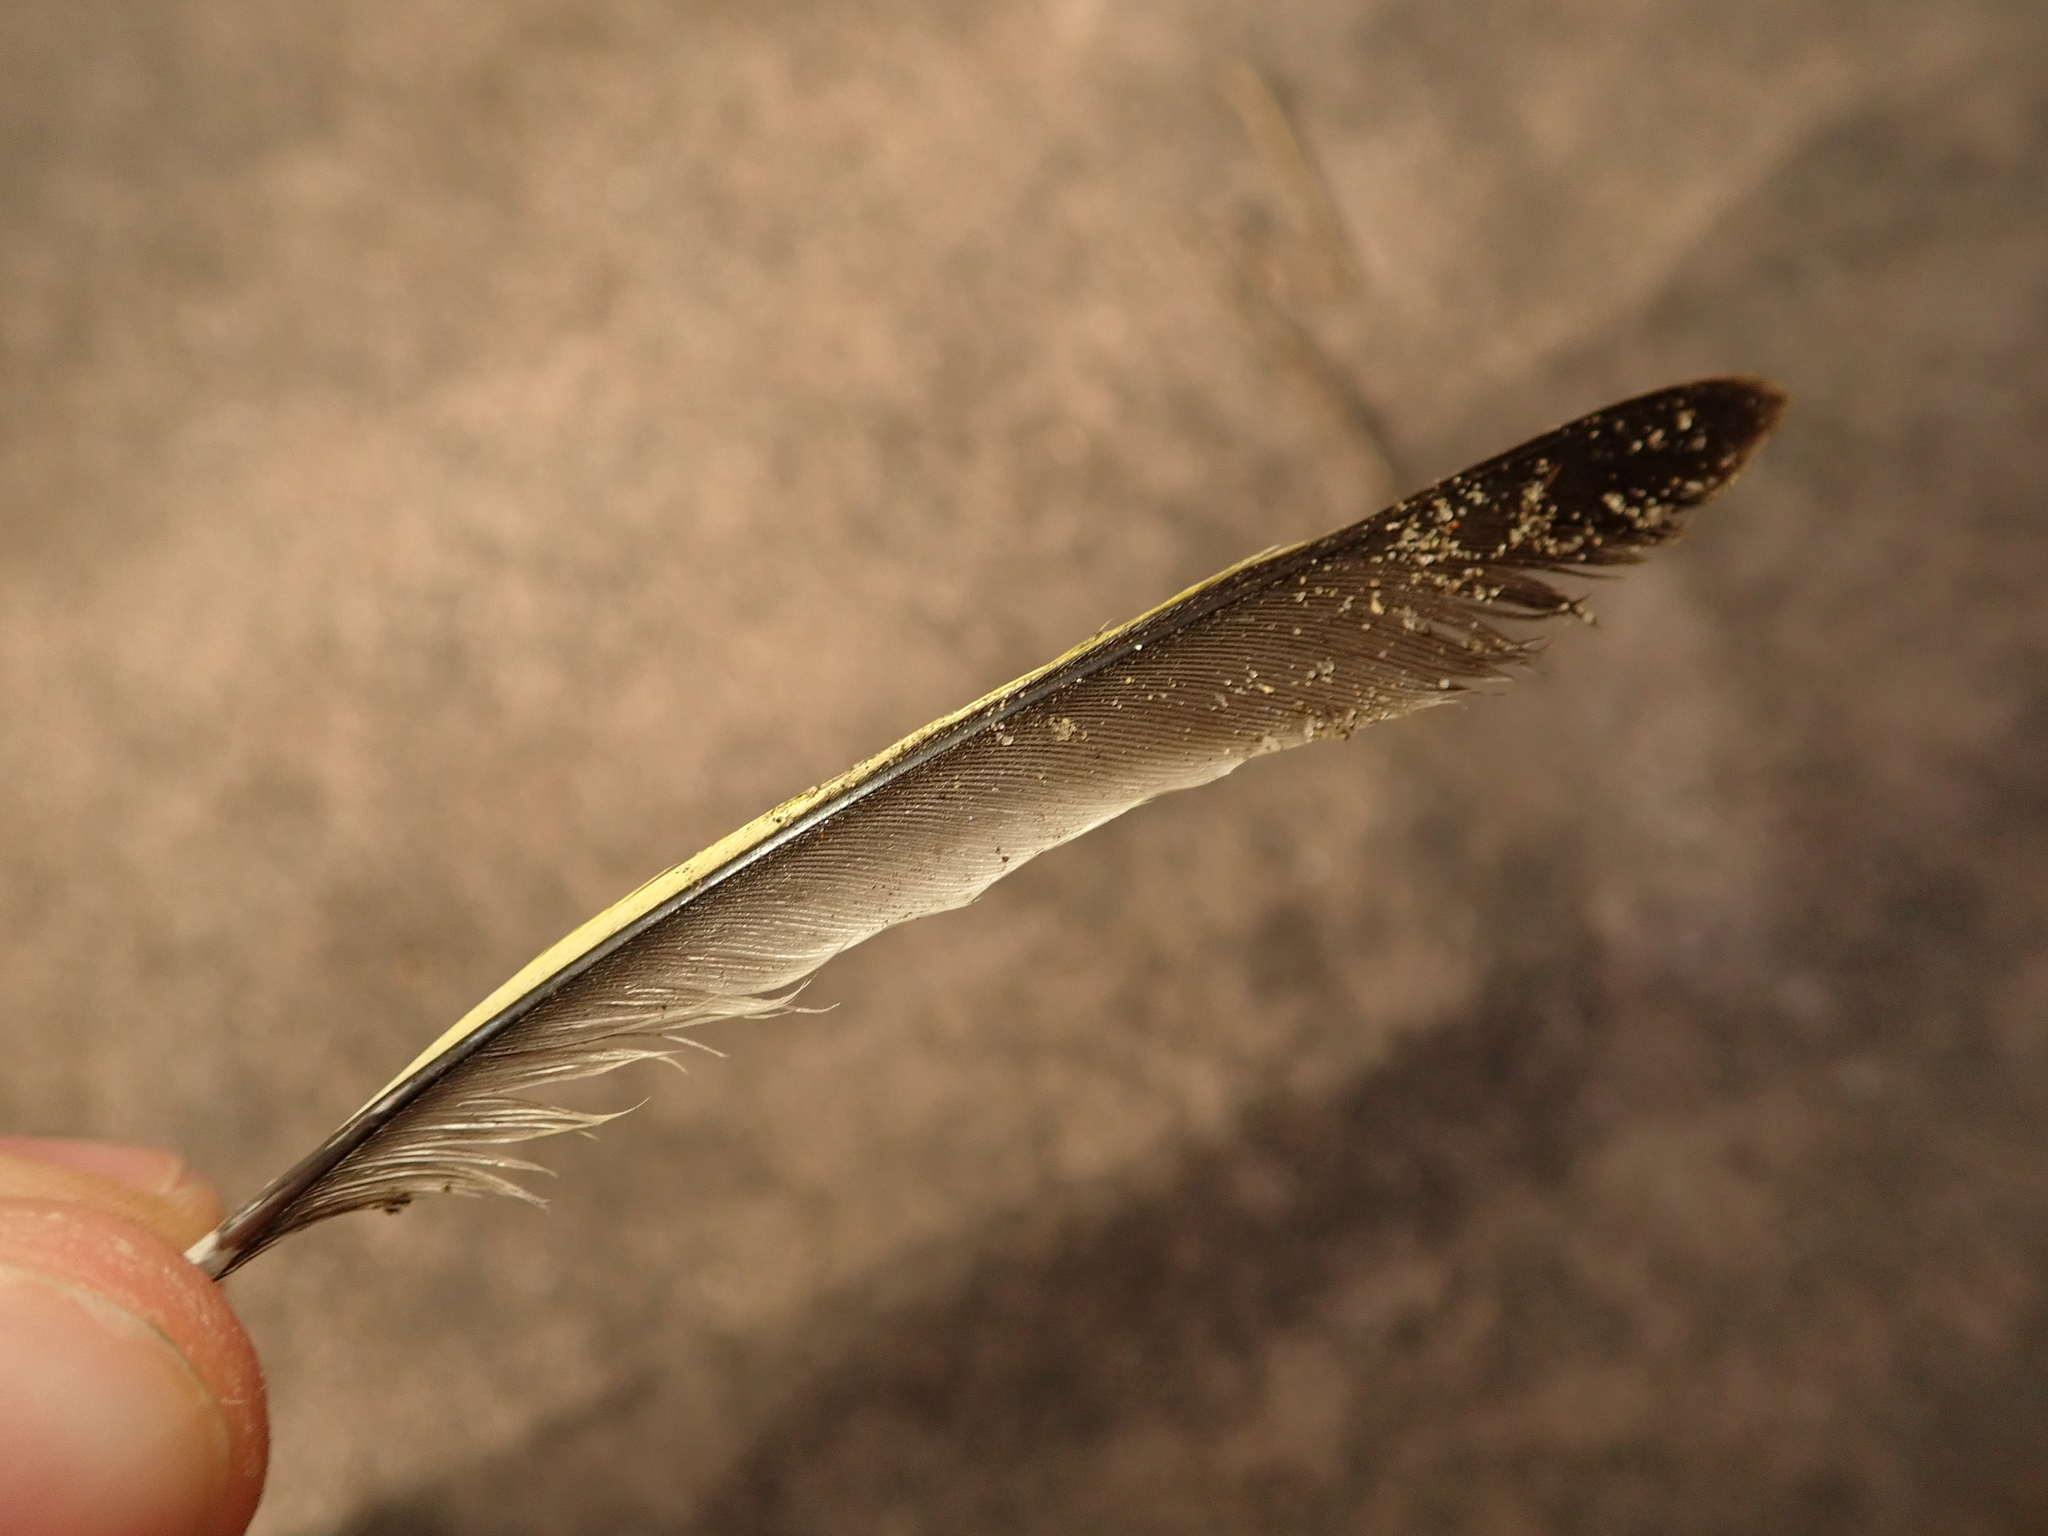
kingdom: Plantae
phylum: Tracheophyta
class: Liliopsida
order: Poales
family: Poaceae
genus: Chloris
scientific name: Chloris chloris
